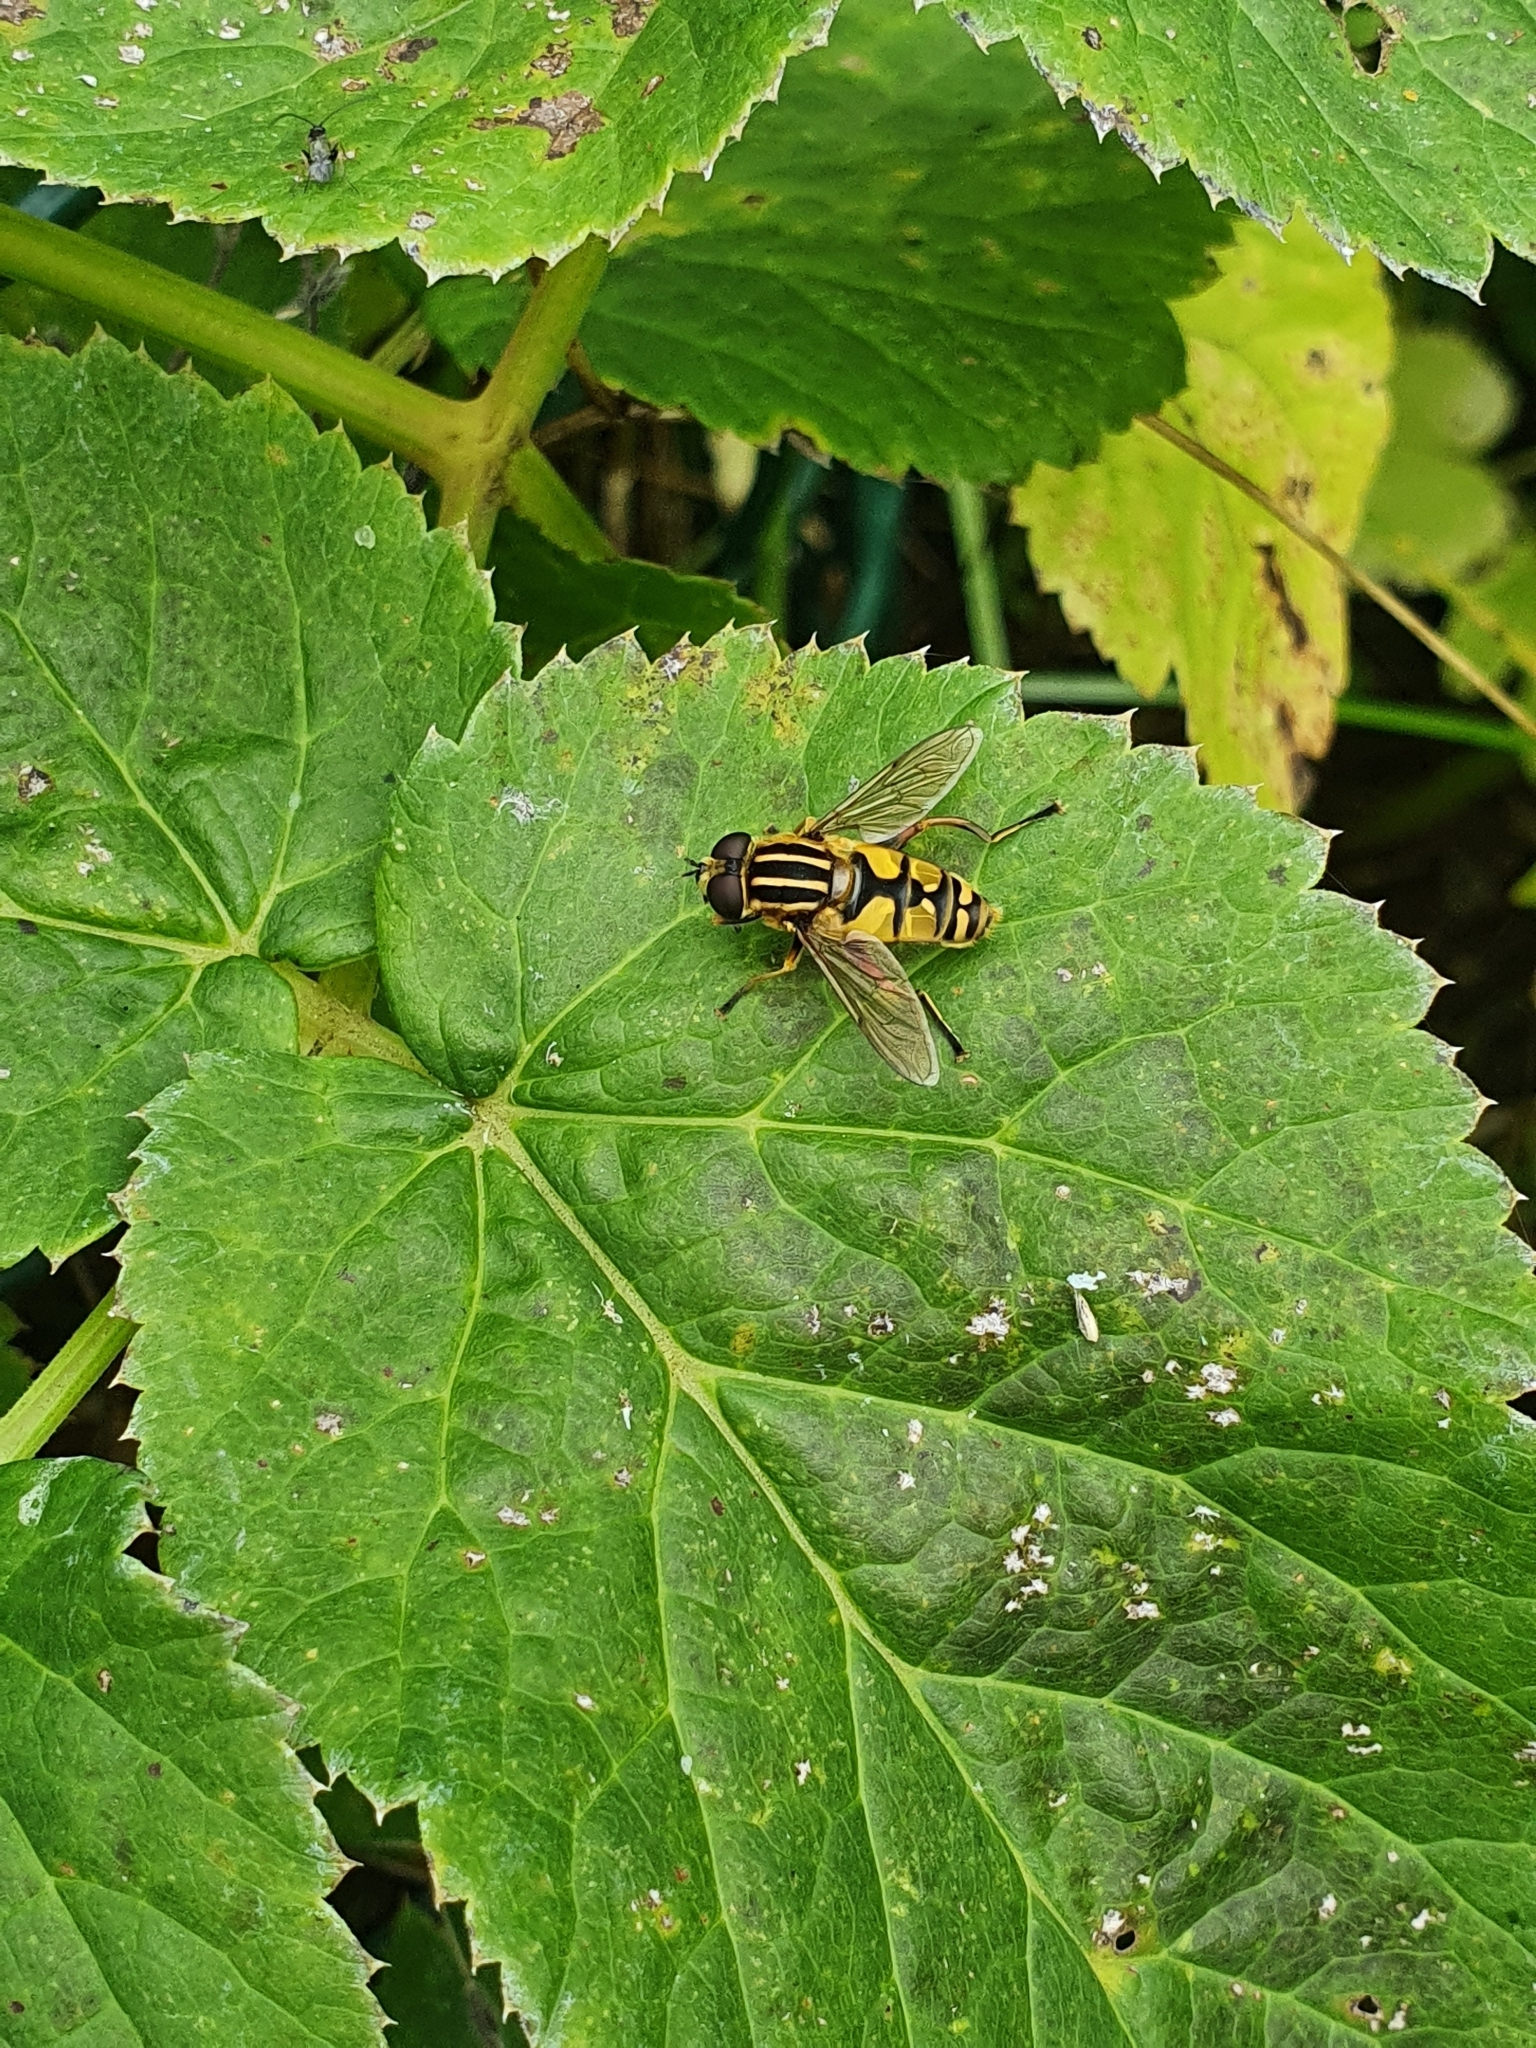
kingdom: Animalia
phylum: Arthropoda
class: Insecta
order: Diptera
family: Syrphidae
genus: Helophilus
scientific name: Helophilus pendulus
